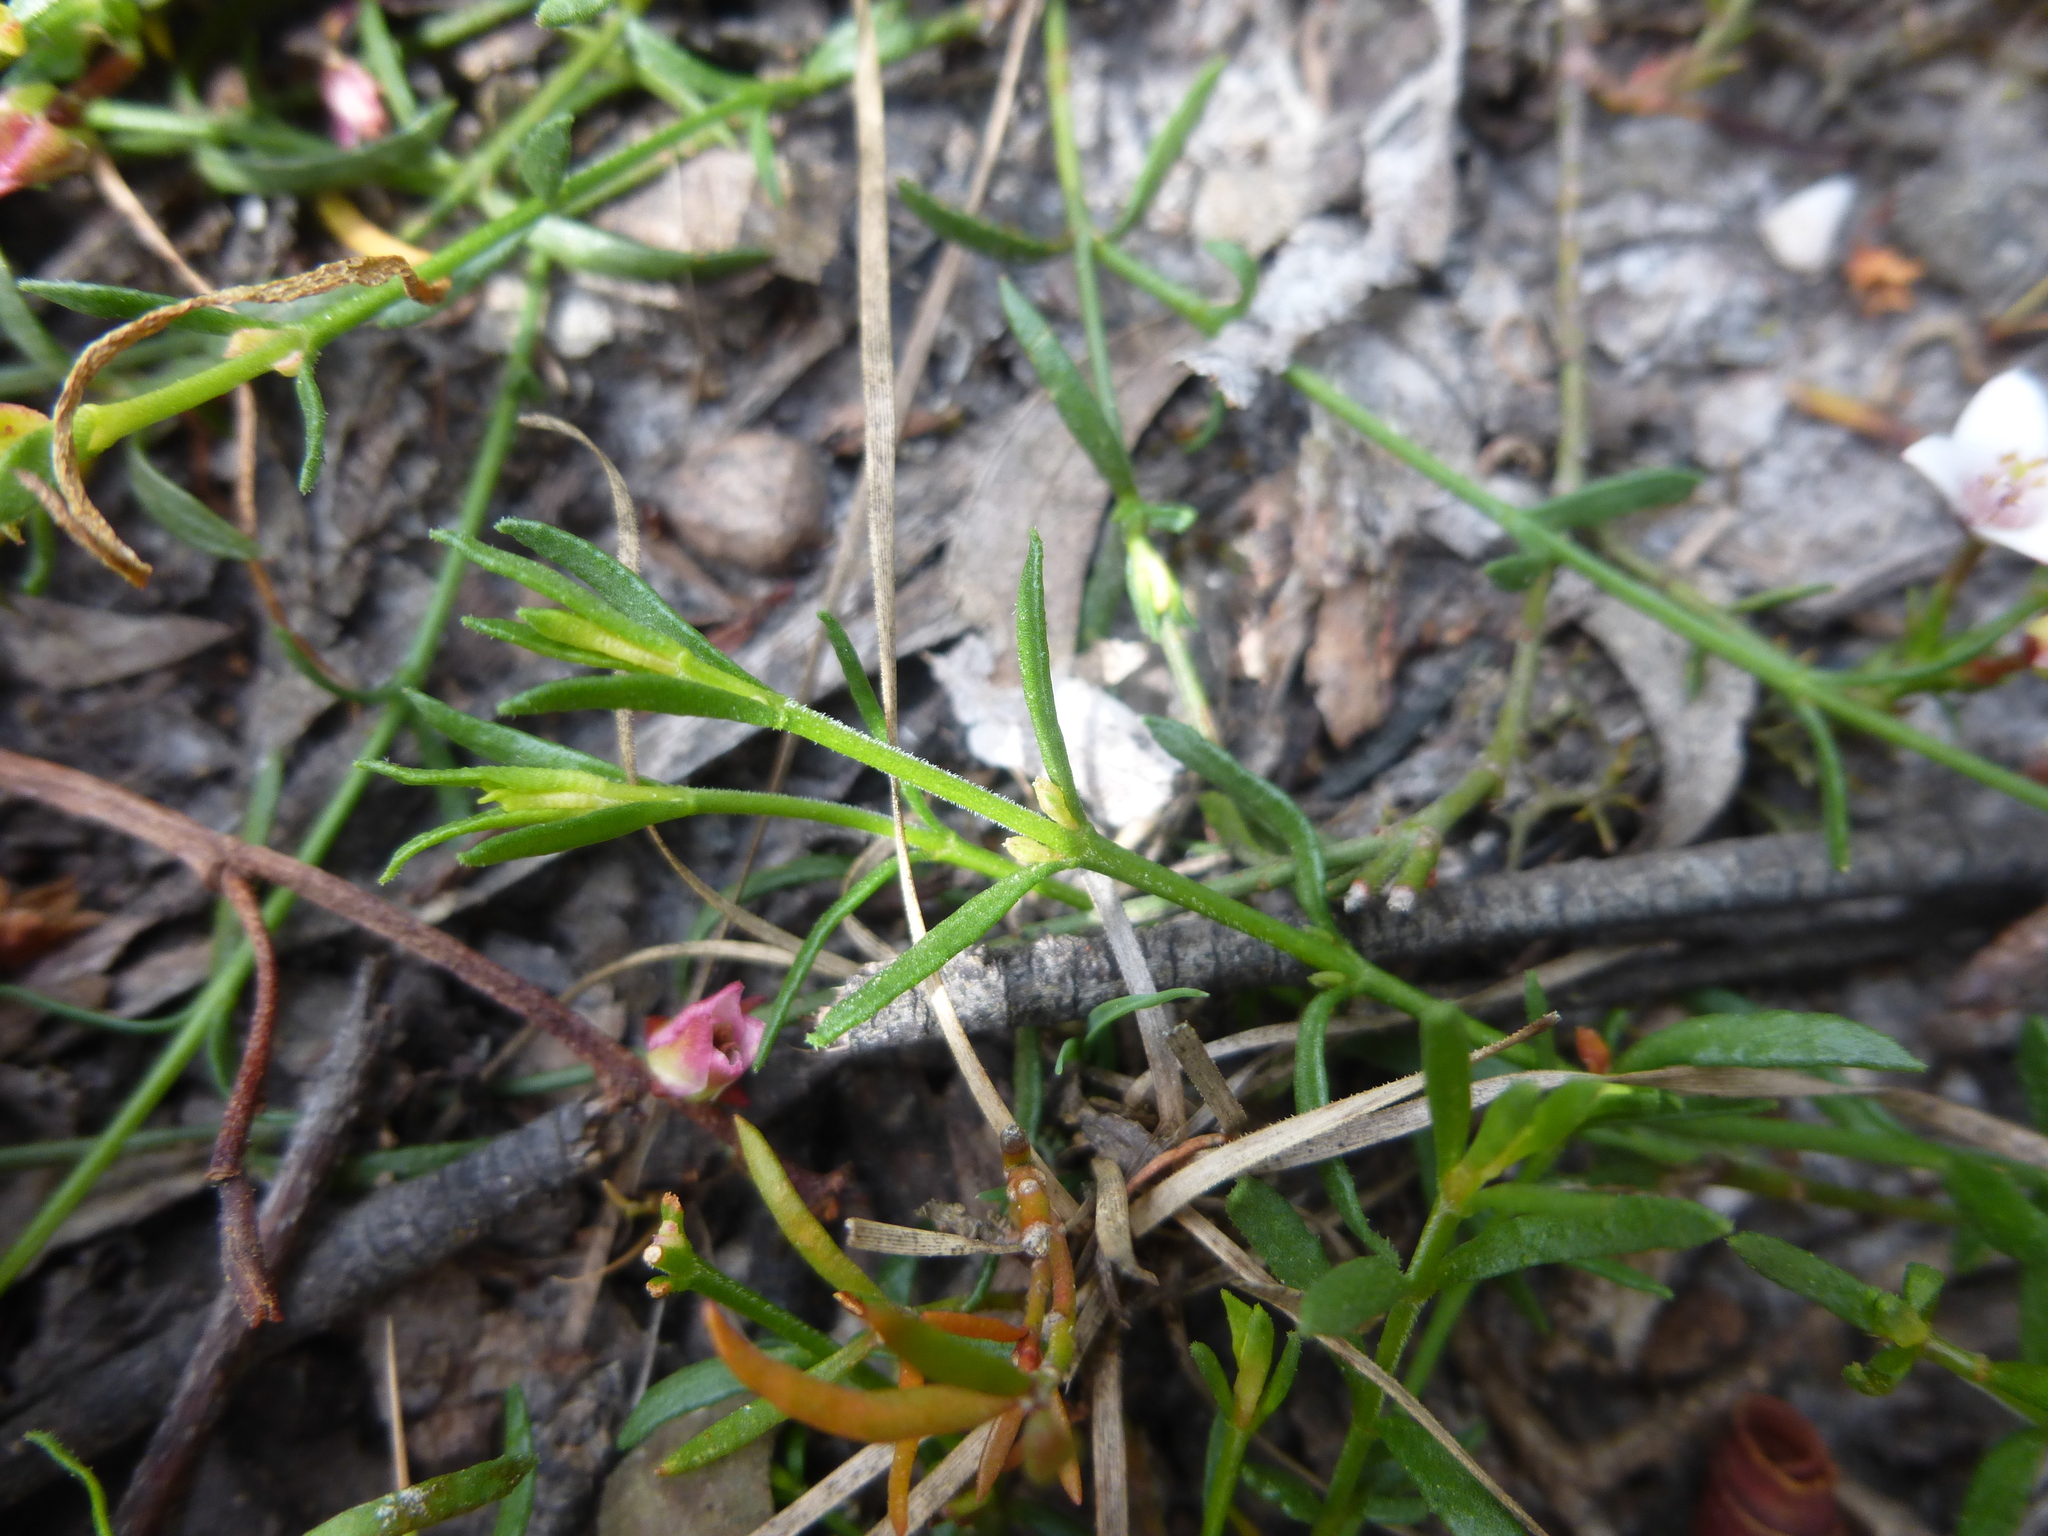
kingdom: Plantae
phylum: Tracheophyta
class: Magnoliopsida
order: Sapindales
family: Rutaceae
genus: Cyanothamnus
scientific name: Cyanothamnus nanus
